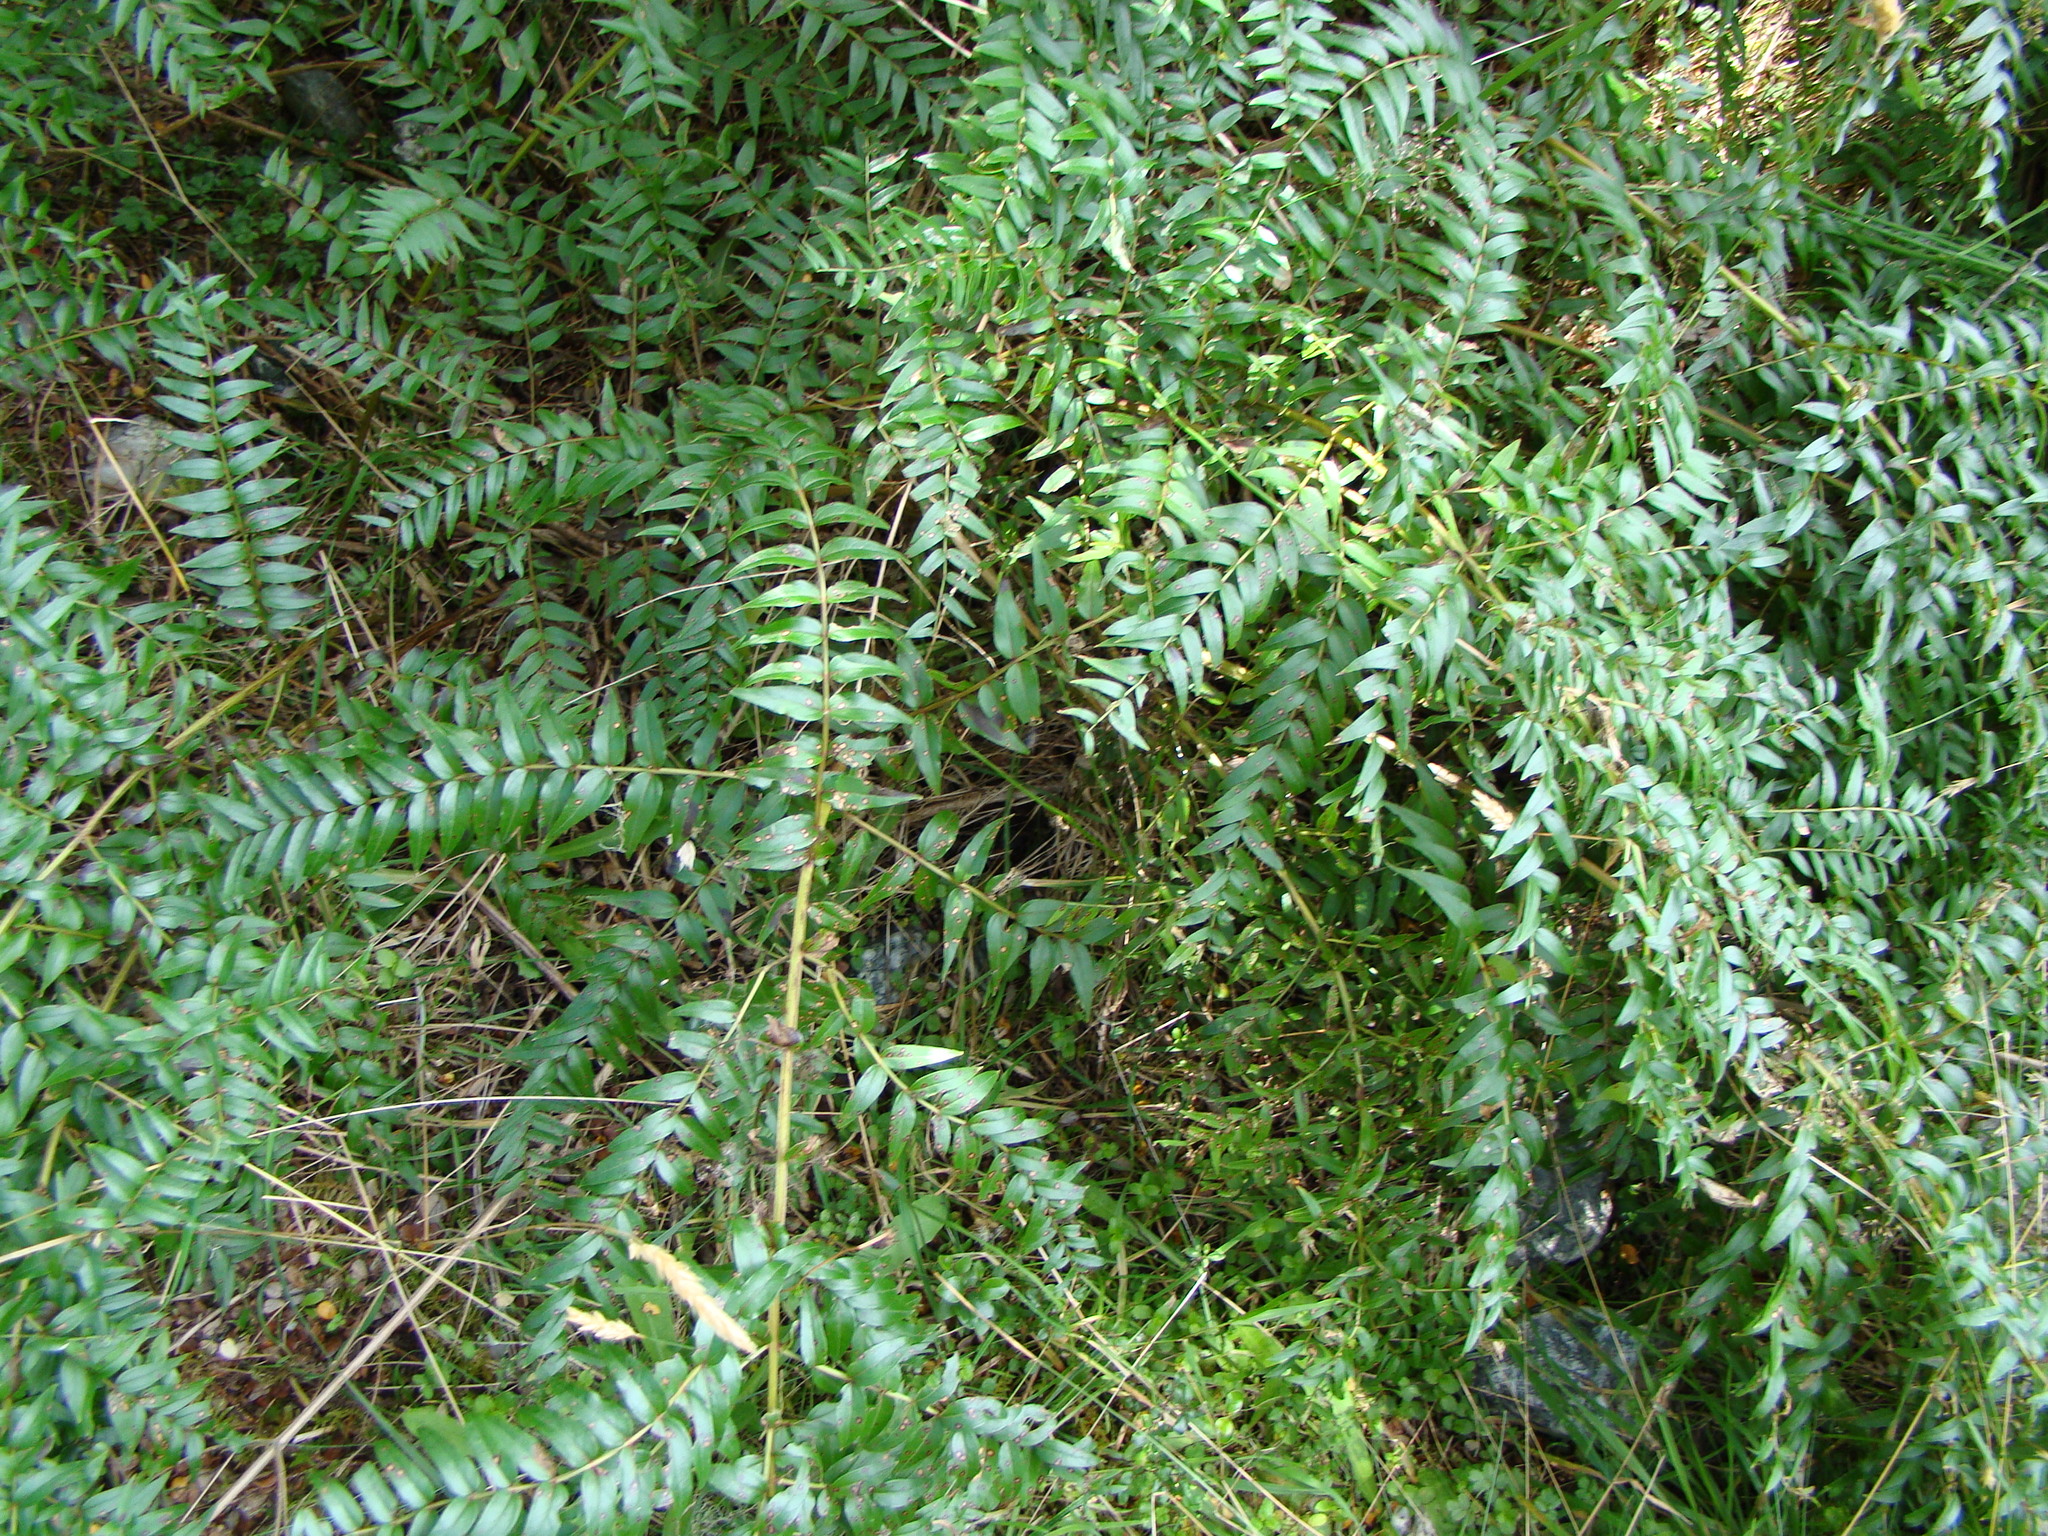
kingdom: Plantae
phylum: Tracheophyta
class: Magnoliopsida
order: Cucurbitales
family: Coriariaceae
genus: Coriaria
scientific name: Coriaria plumosa
